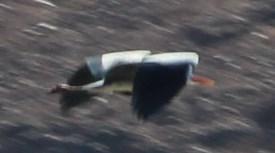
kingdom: Animalia
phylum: Chordata
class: Aves
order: Pelecaniformes
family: Ardeidae
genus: Ardea
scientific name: Ardea cinerea
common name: Grey heron
